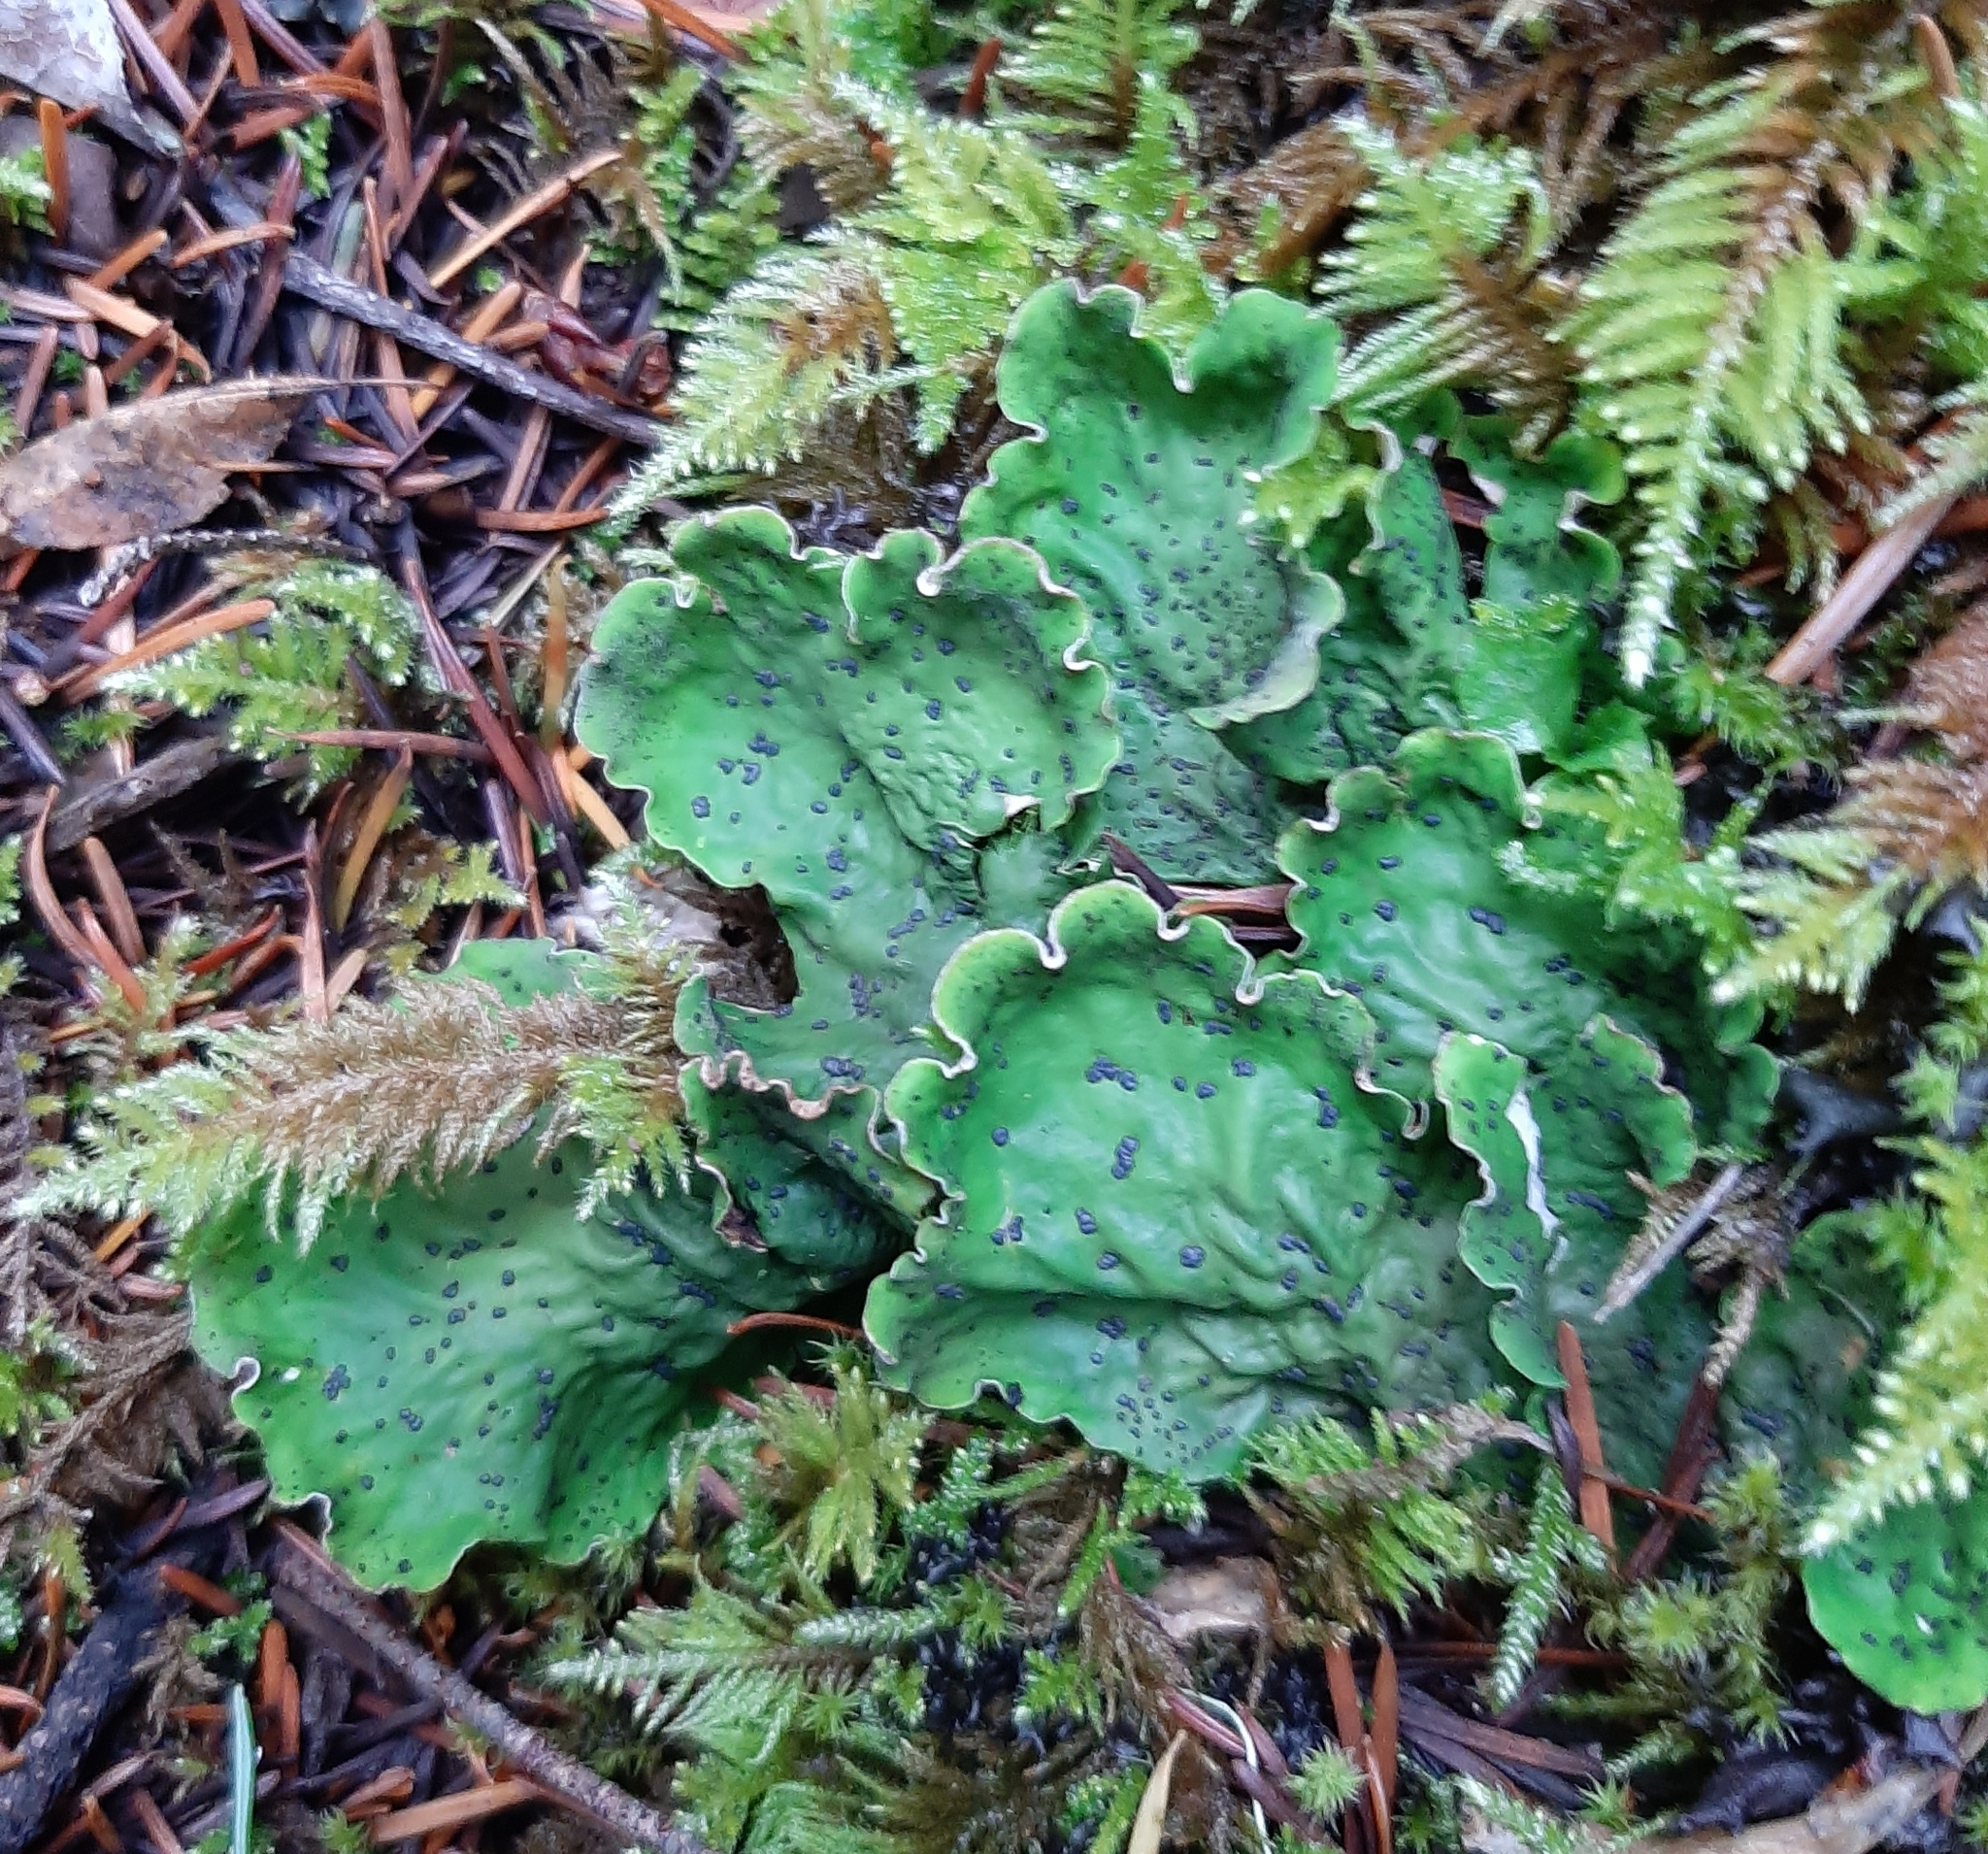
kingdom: Fungi
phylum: Ascomycota
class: Lecanoromycetes
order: Peltigerales
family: Peltigeraceae
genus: Peltigera
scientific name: Peltigera aphthosa
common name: Common freckle pelt lichen
